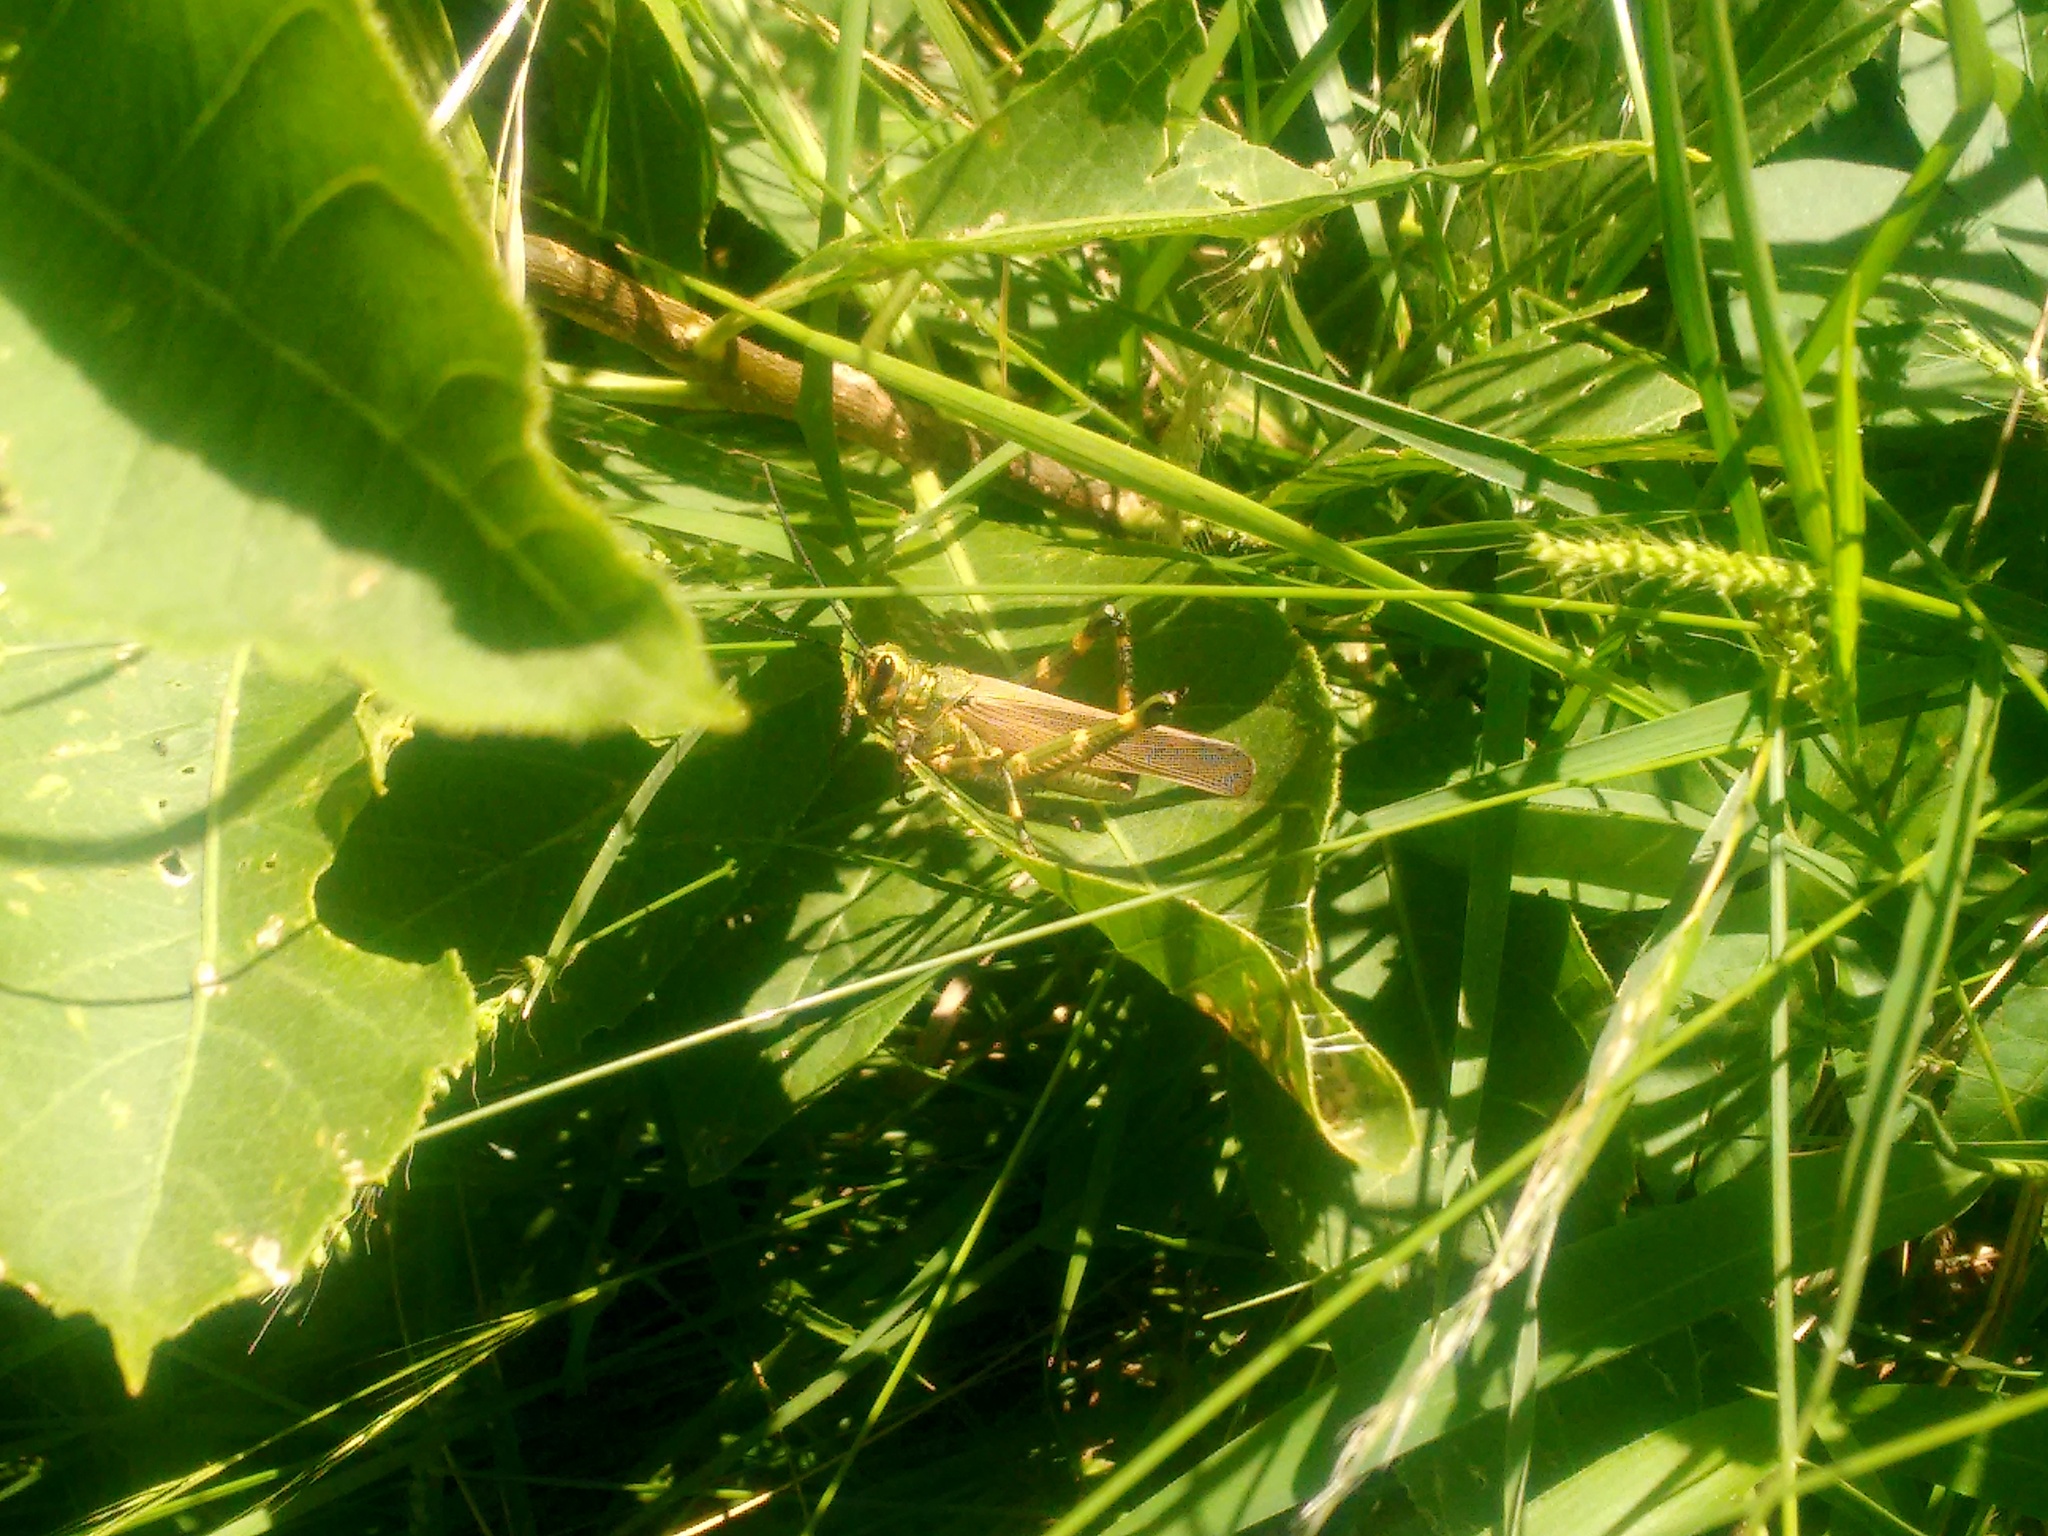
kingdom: Animalia
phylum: Arthropoda
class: Insecta
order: Orthoptera
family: Romaleidae
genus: Chromacris
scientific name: Chromacris speciosa
